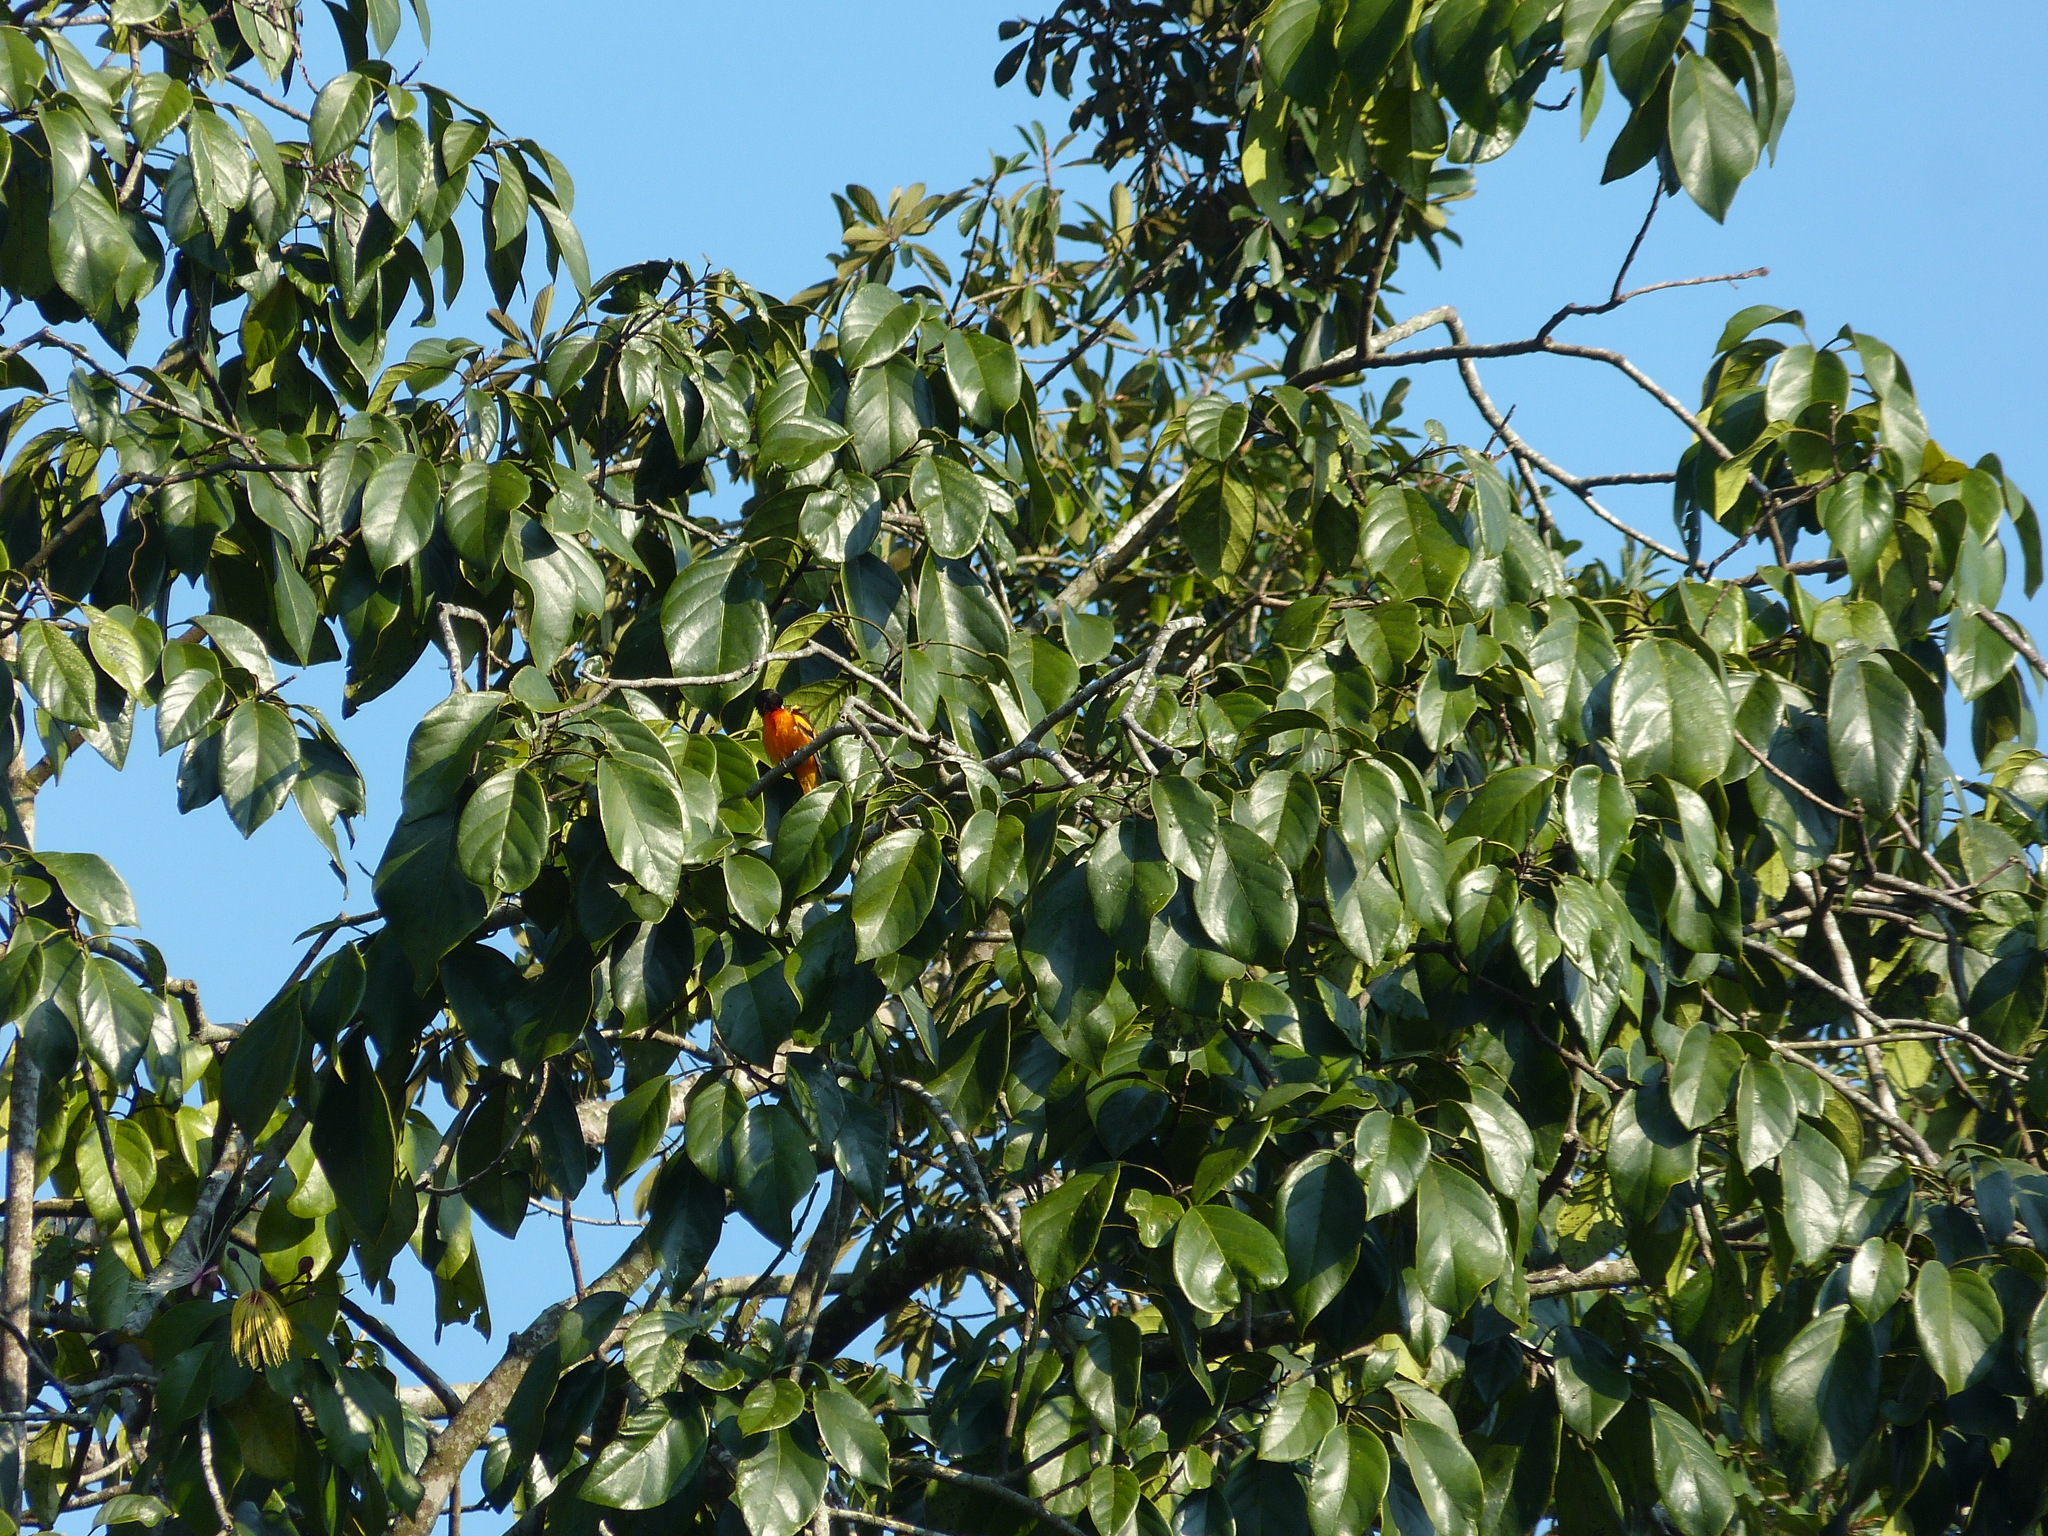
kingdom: Animalia
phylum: Chordata
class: Aves
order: Passeriformes
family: Icteridae
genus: Icterus
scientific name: Icterus galbula
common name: Baltimore oriole
